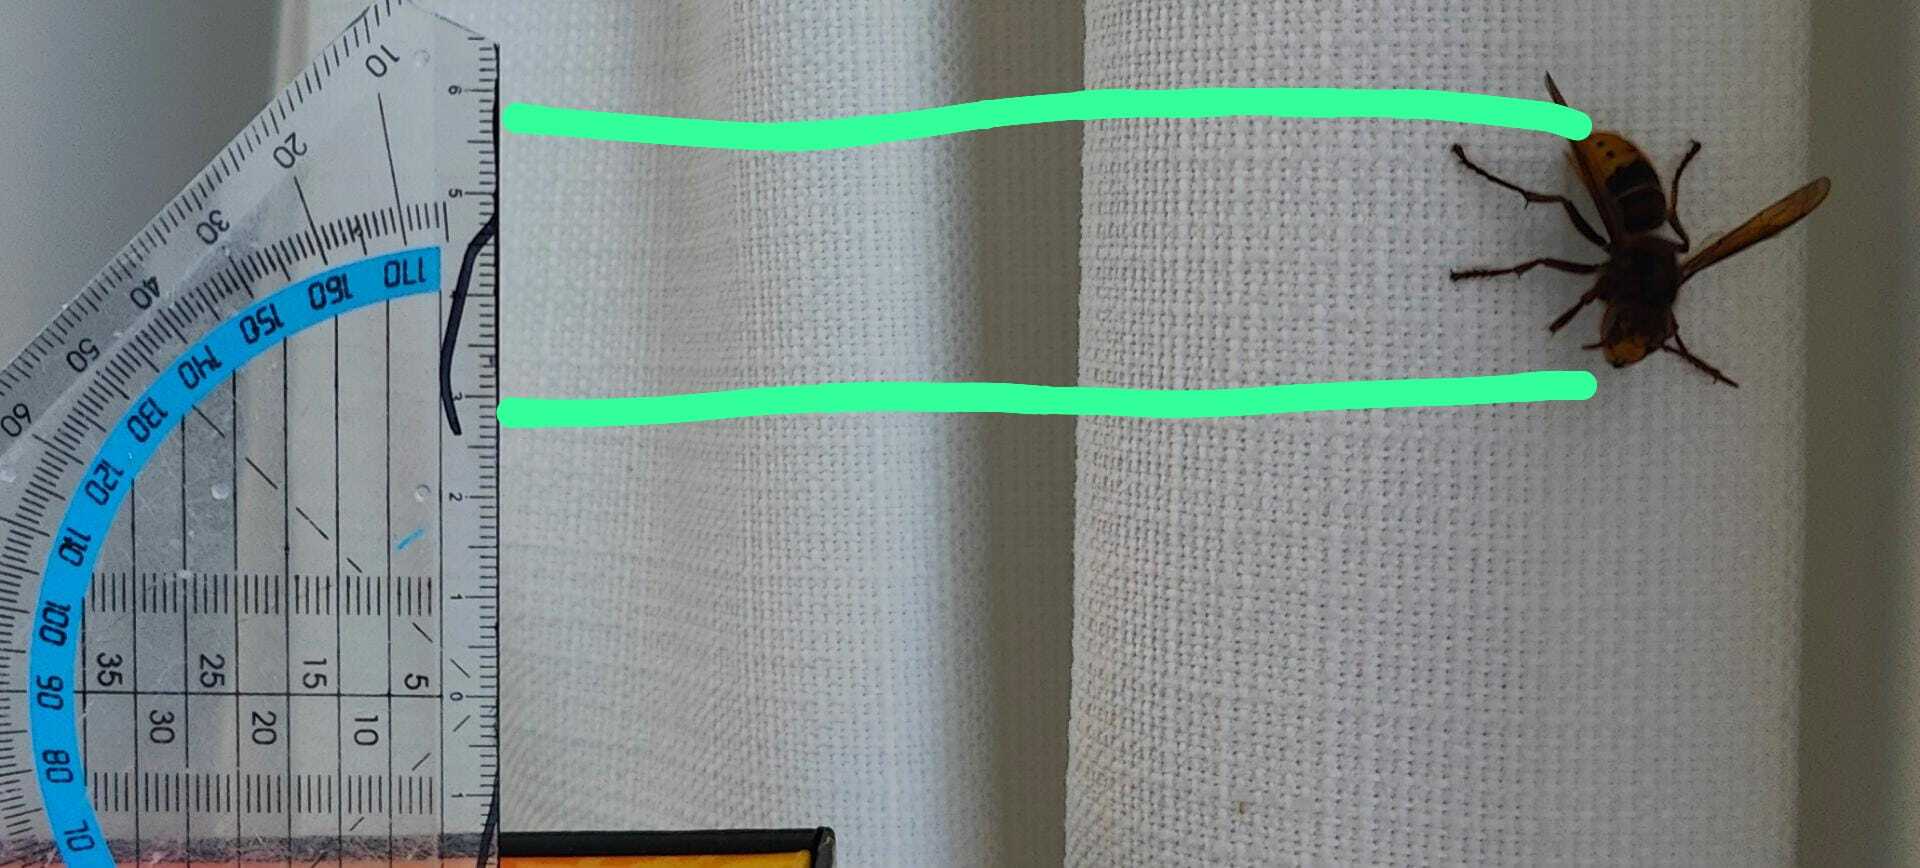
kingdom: Animalia
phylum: Arthropoda
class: Insecta
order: Hymenoptera
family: Vespidae
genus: Vespa
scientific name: Vespa crabro
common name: Hornet
